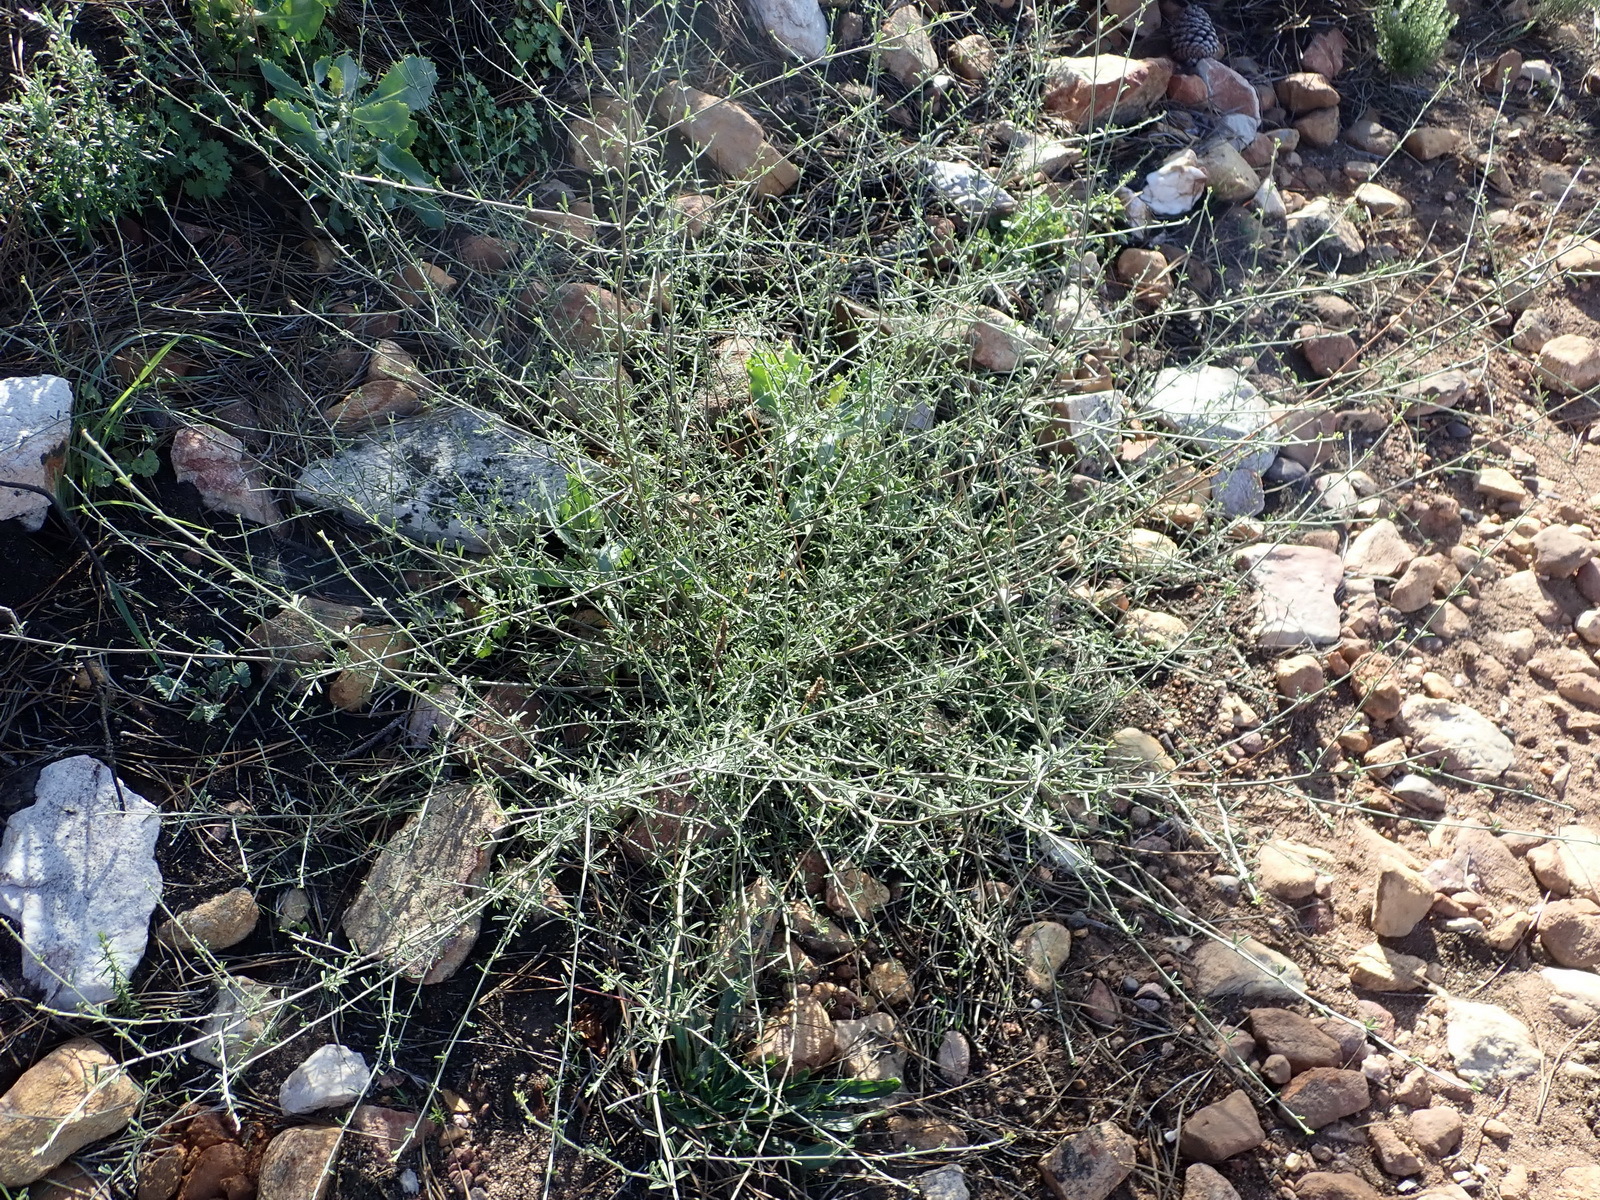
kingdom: Plantae
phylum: Tracheophyta
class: Magnoliopsida
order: Fabales
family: Fabaceae
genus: Psoralea
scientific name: Psoralea candicans
